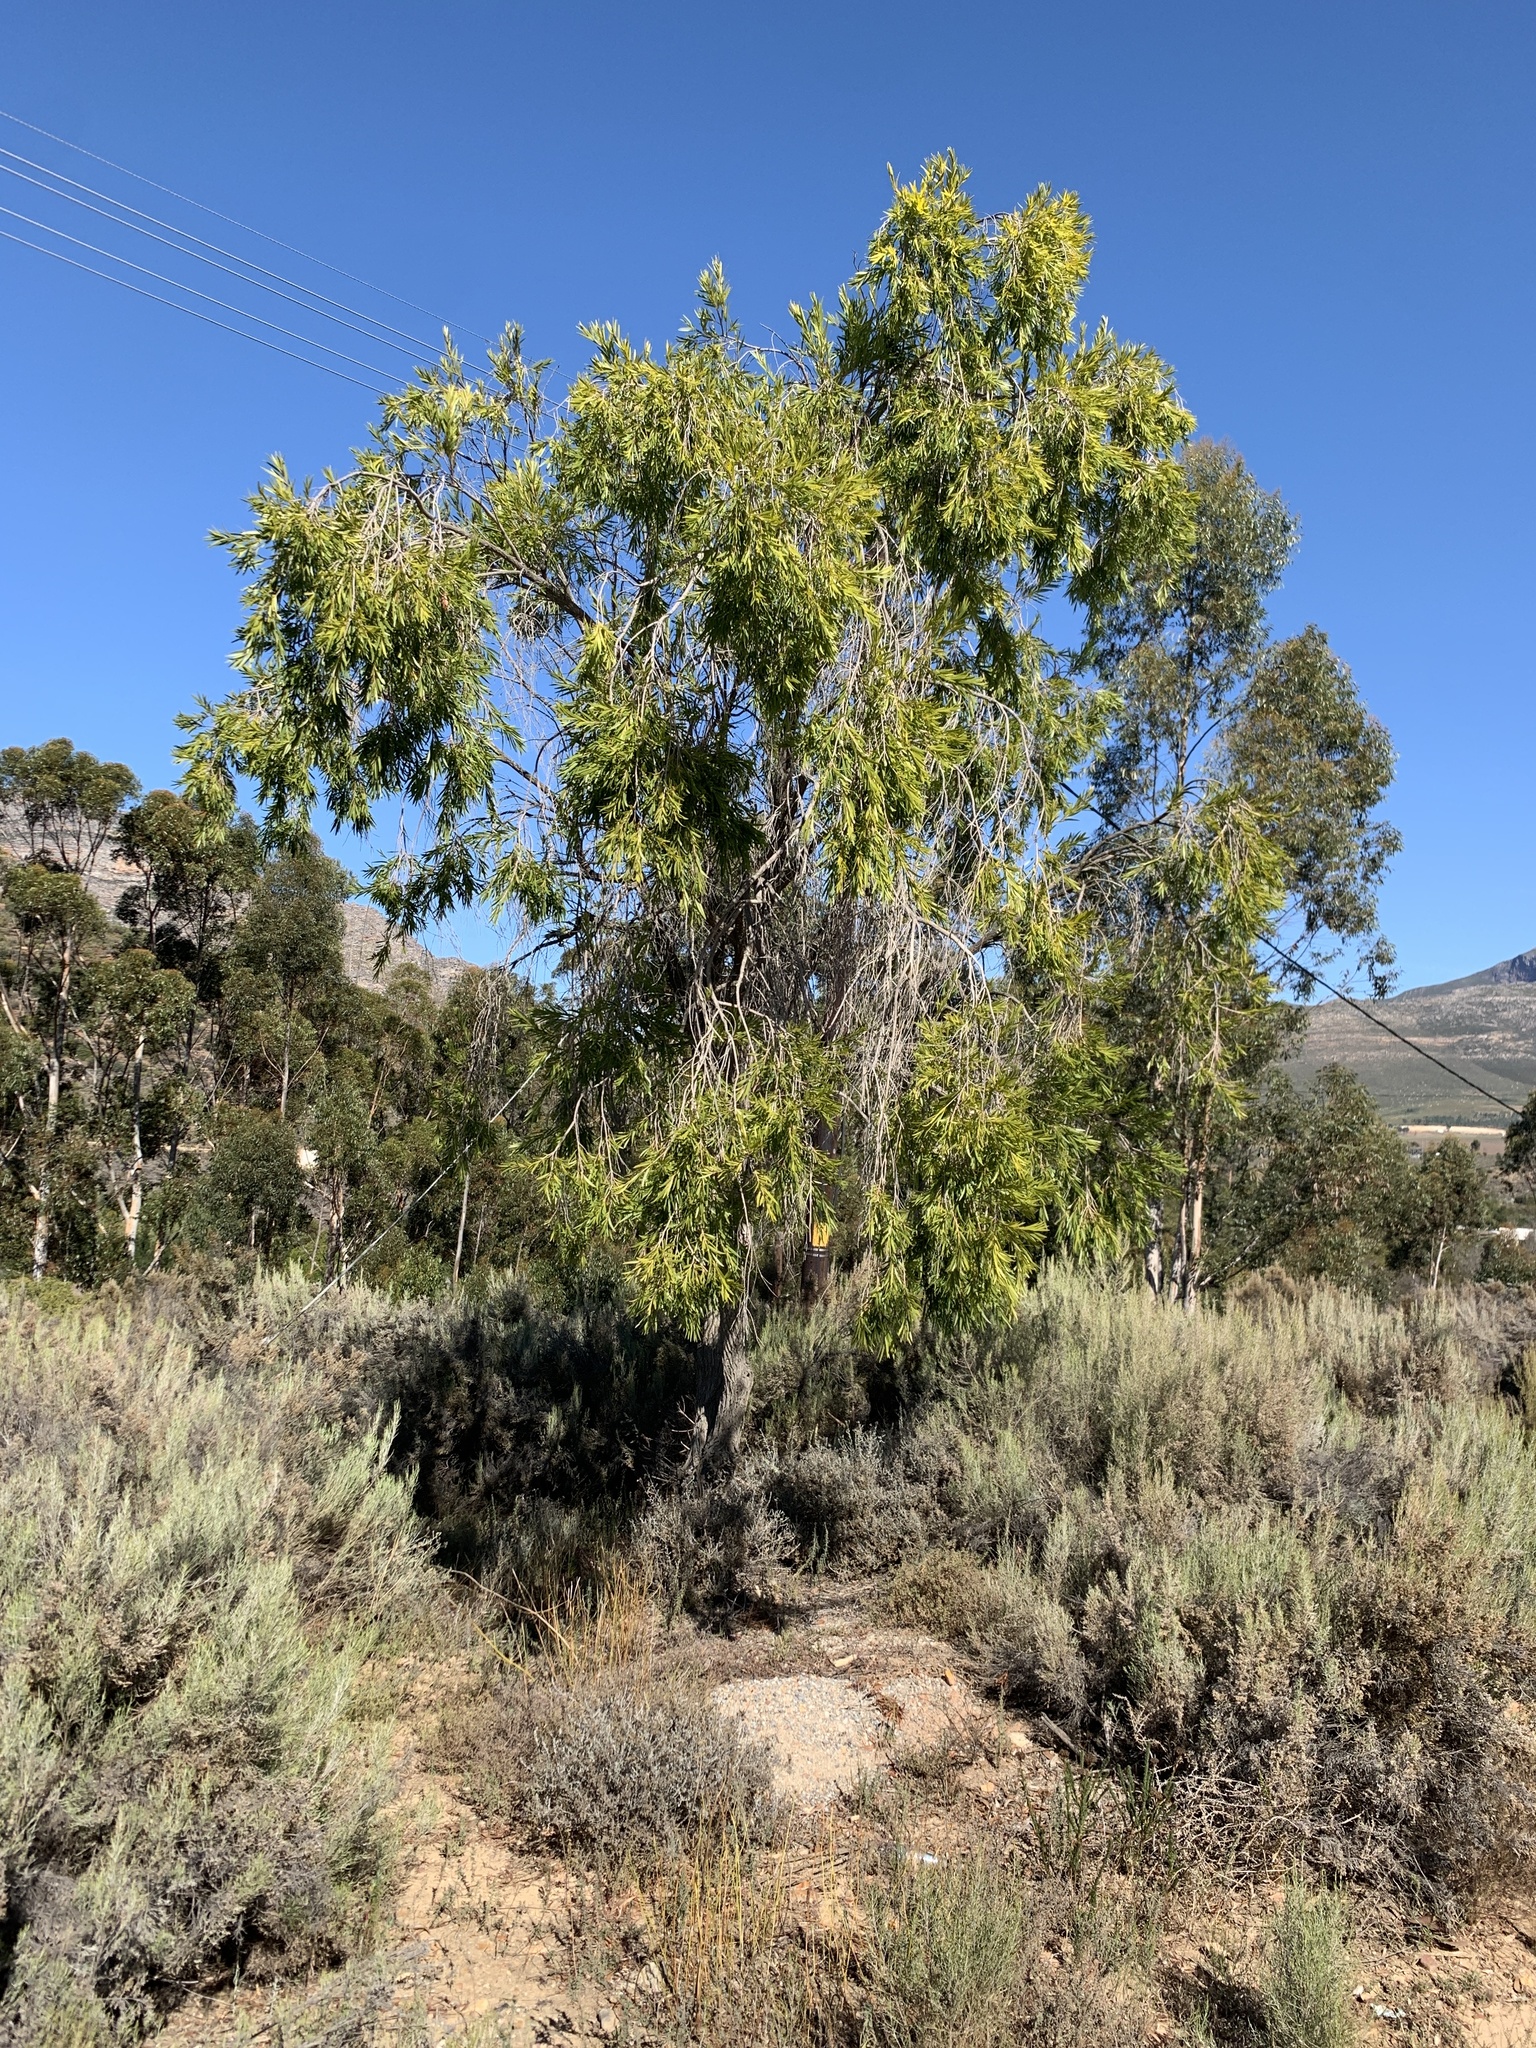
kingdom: Plantae
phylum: Tracheophyta
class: Magnoliopsida
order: Myrtales
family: Myrtaceae
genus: Callistemon
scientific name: Callistemon viminalis
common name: Drooping bottlebrush
